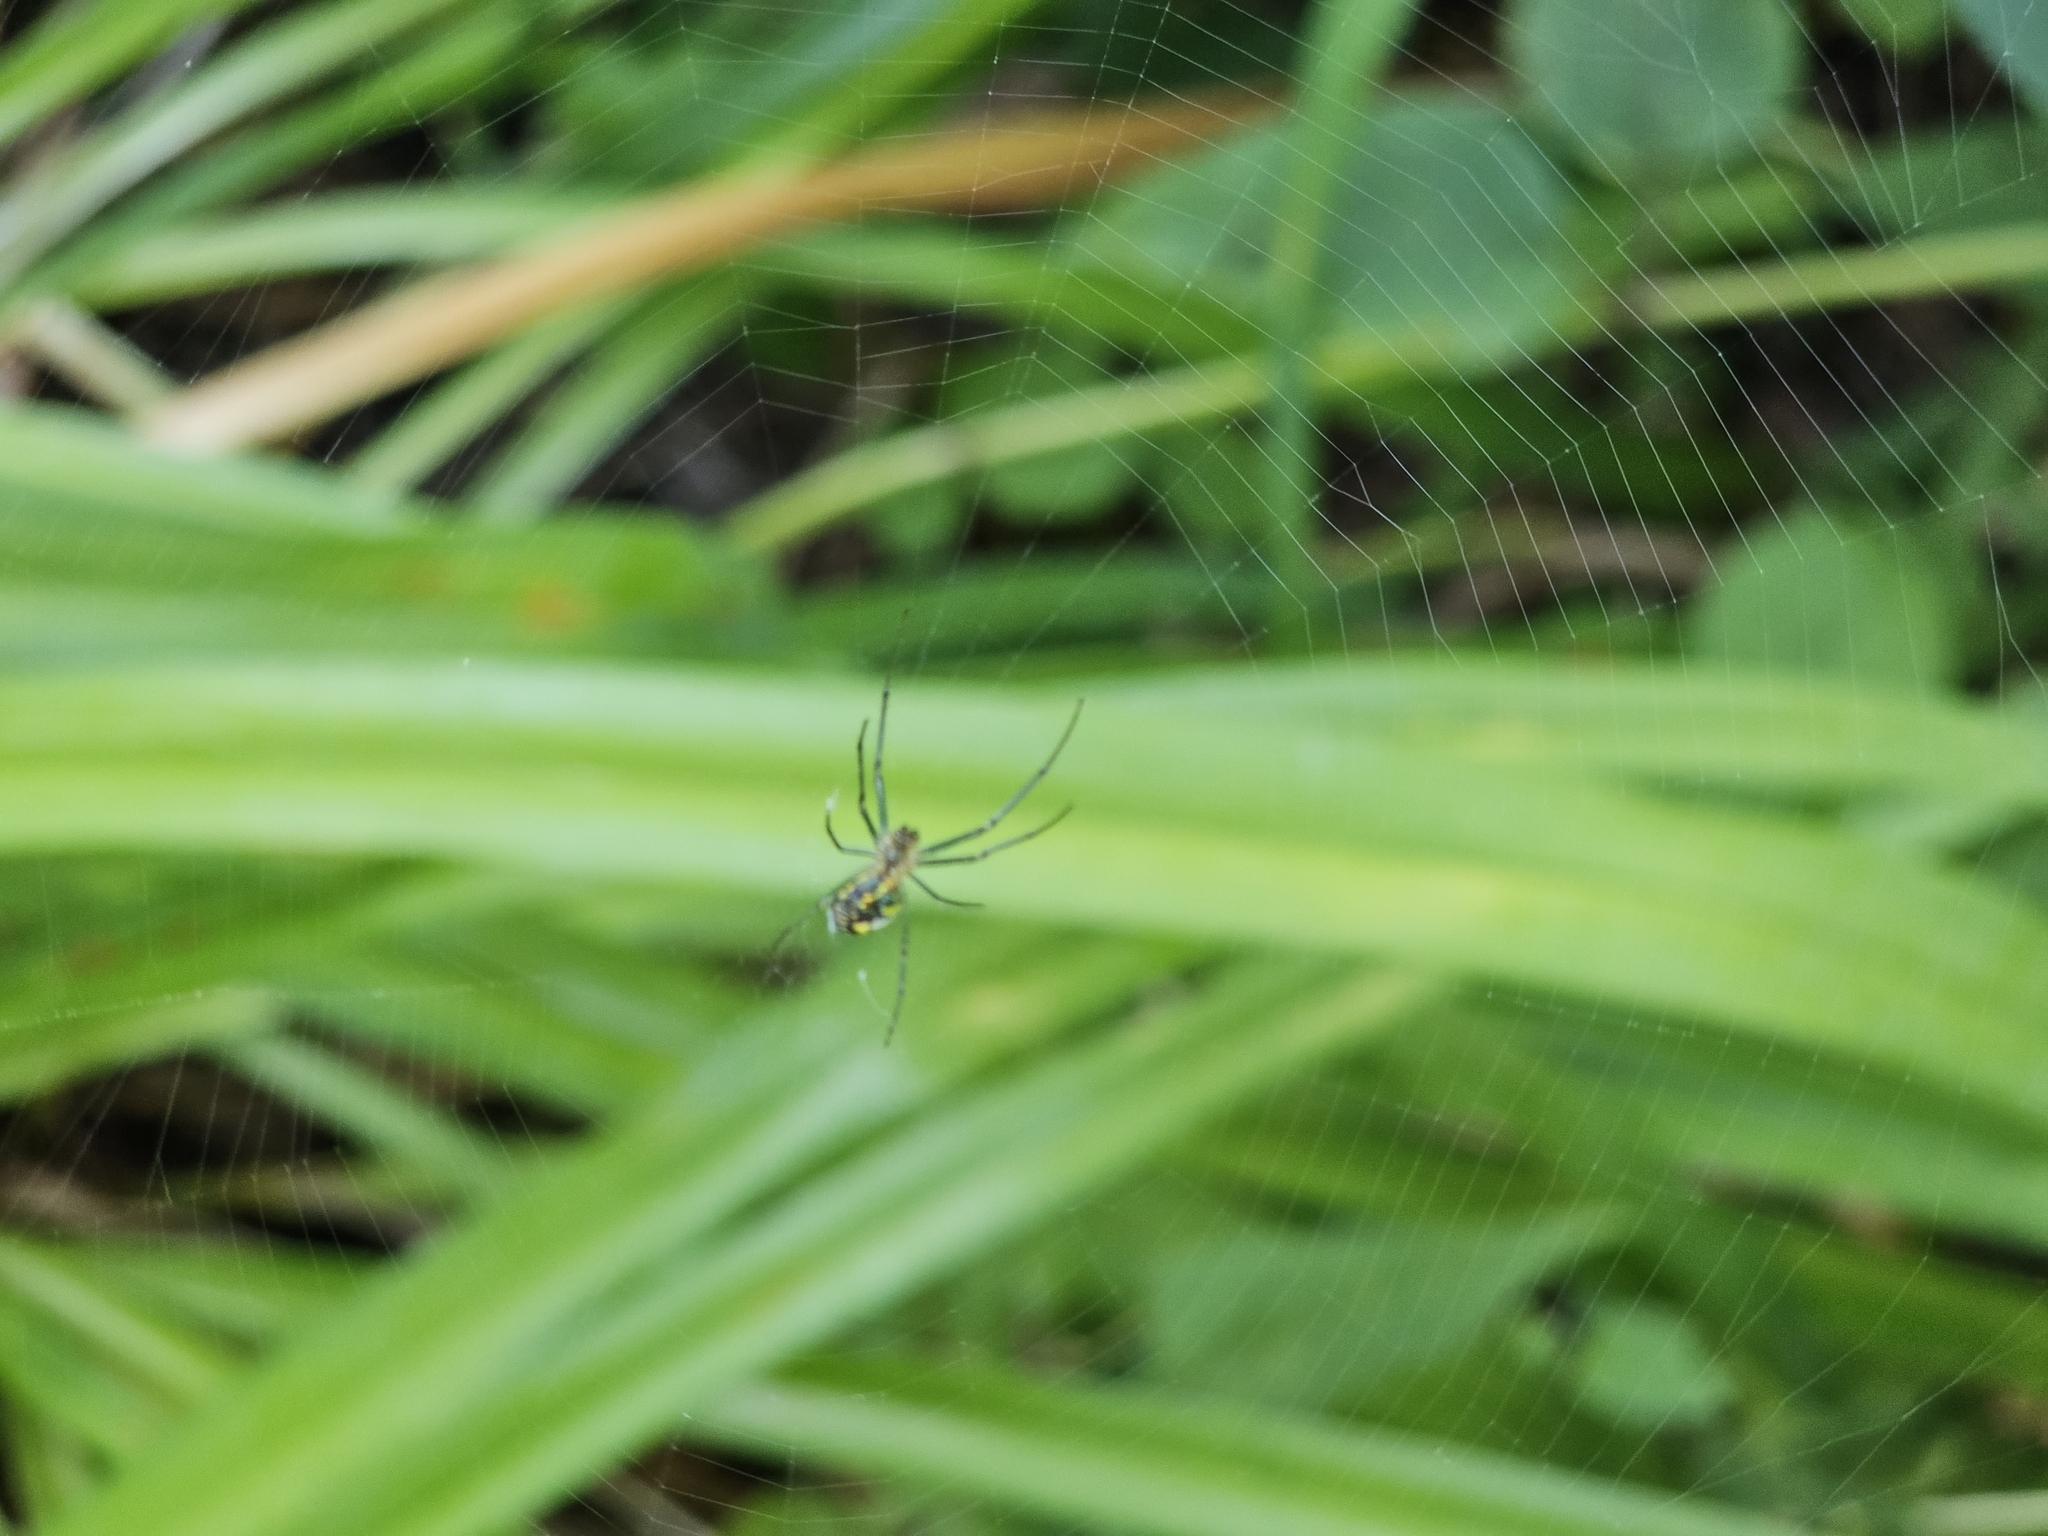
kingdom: Animalia
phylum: Arthropoda
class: Arachnida
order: Araneae
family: Linyphiidae
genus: Neriene
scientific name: Neriene radiata
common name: Filmy dome spider
